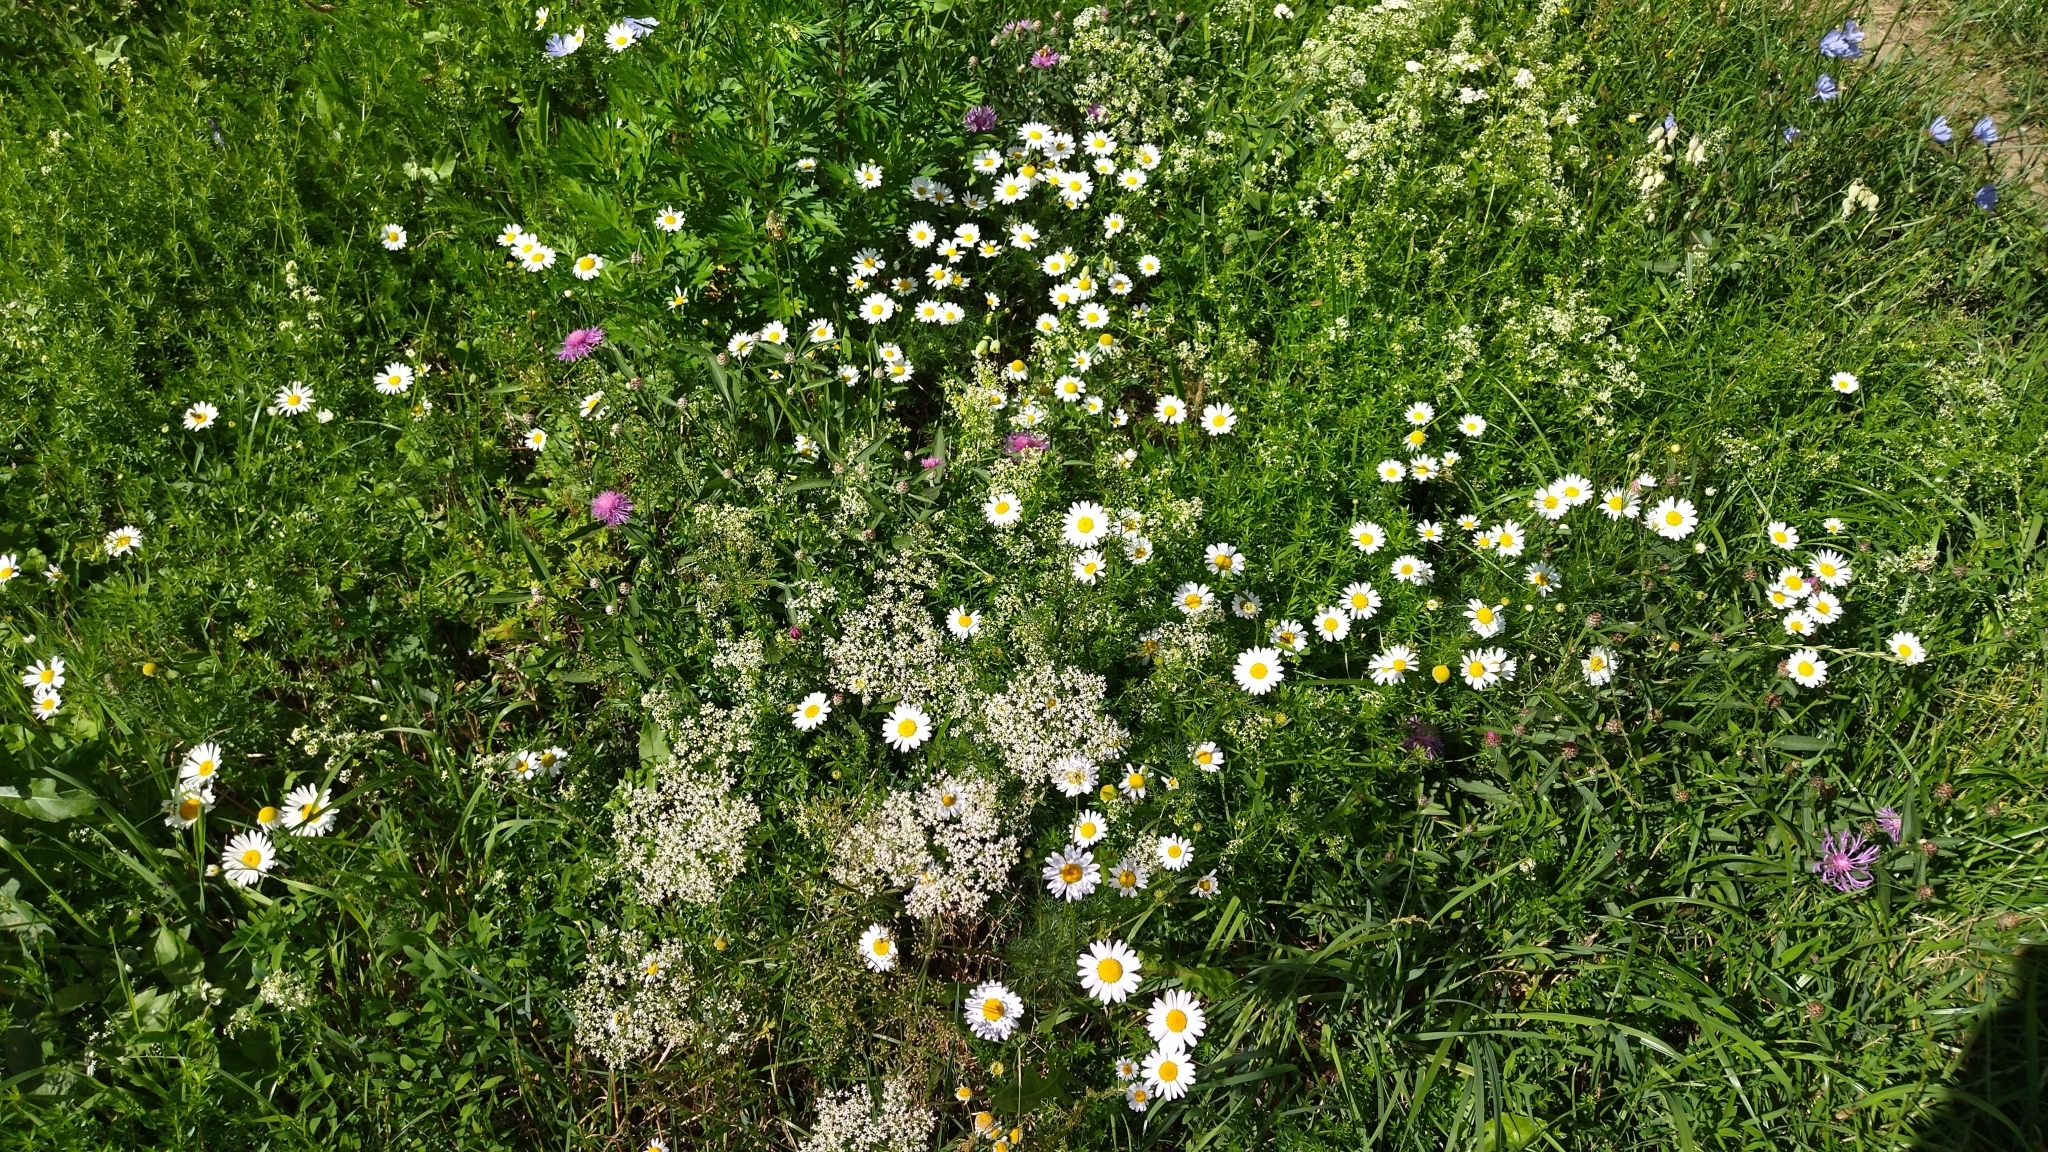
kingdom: Plantae
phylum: Tracheophyta
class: Magnoliopsida
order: Asterales
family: Asteraceae
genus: Tripleurospermum
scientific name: Tripleurospermum inodorum
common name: Scentless mayweed
